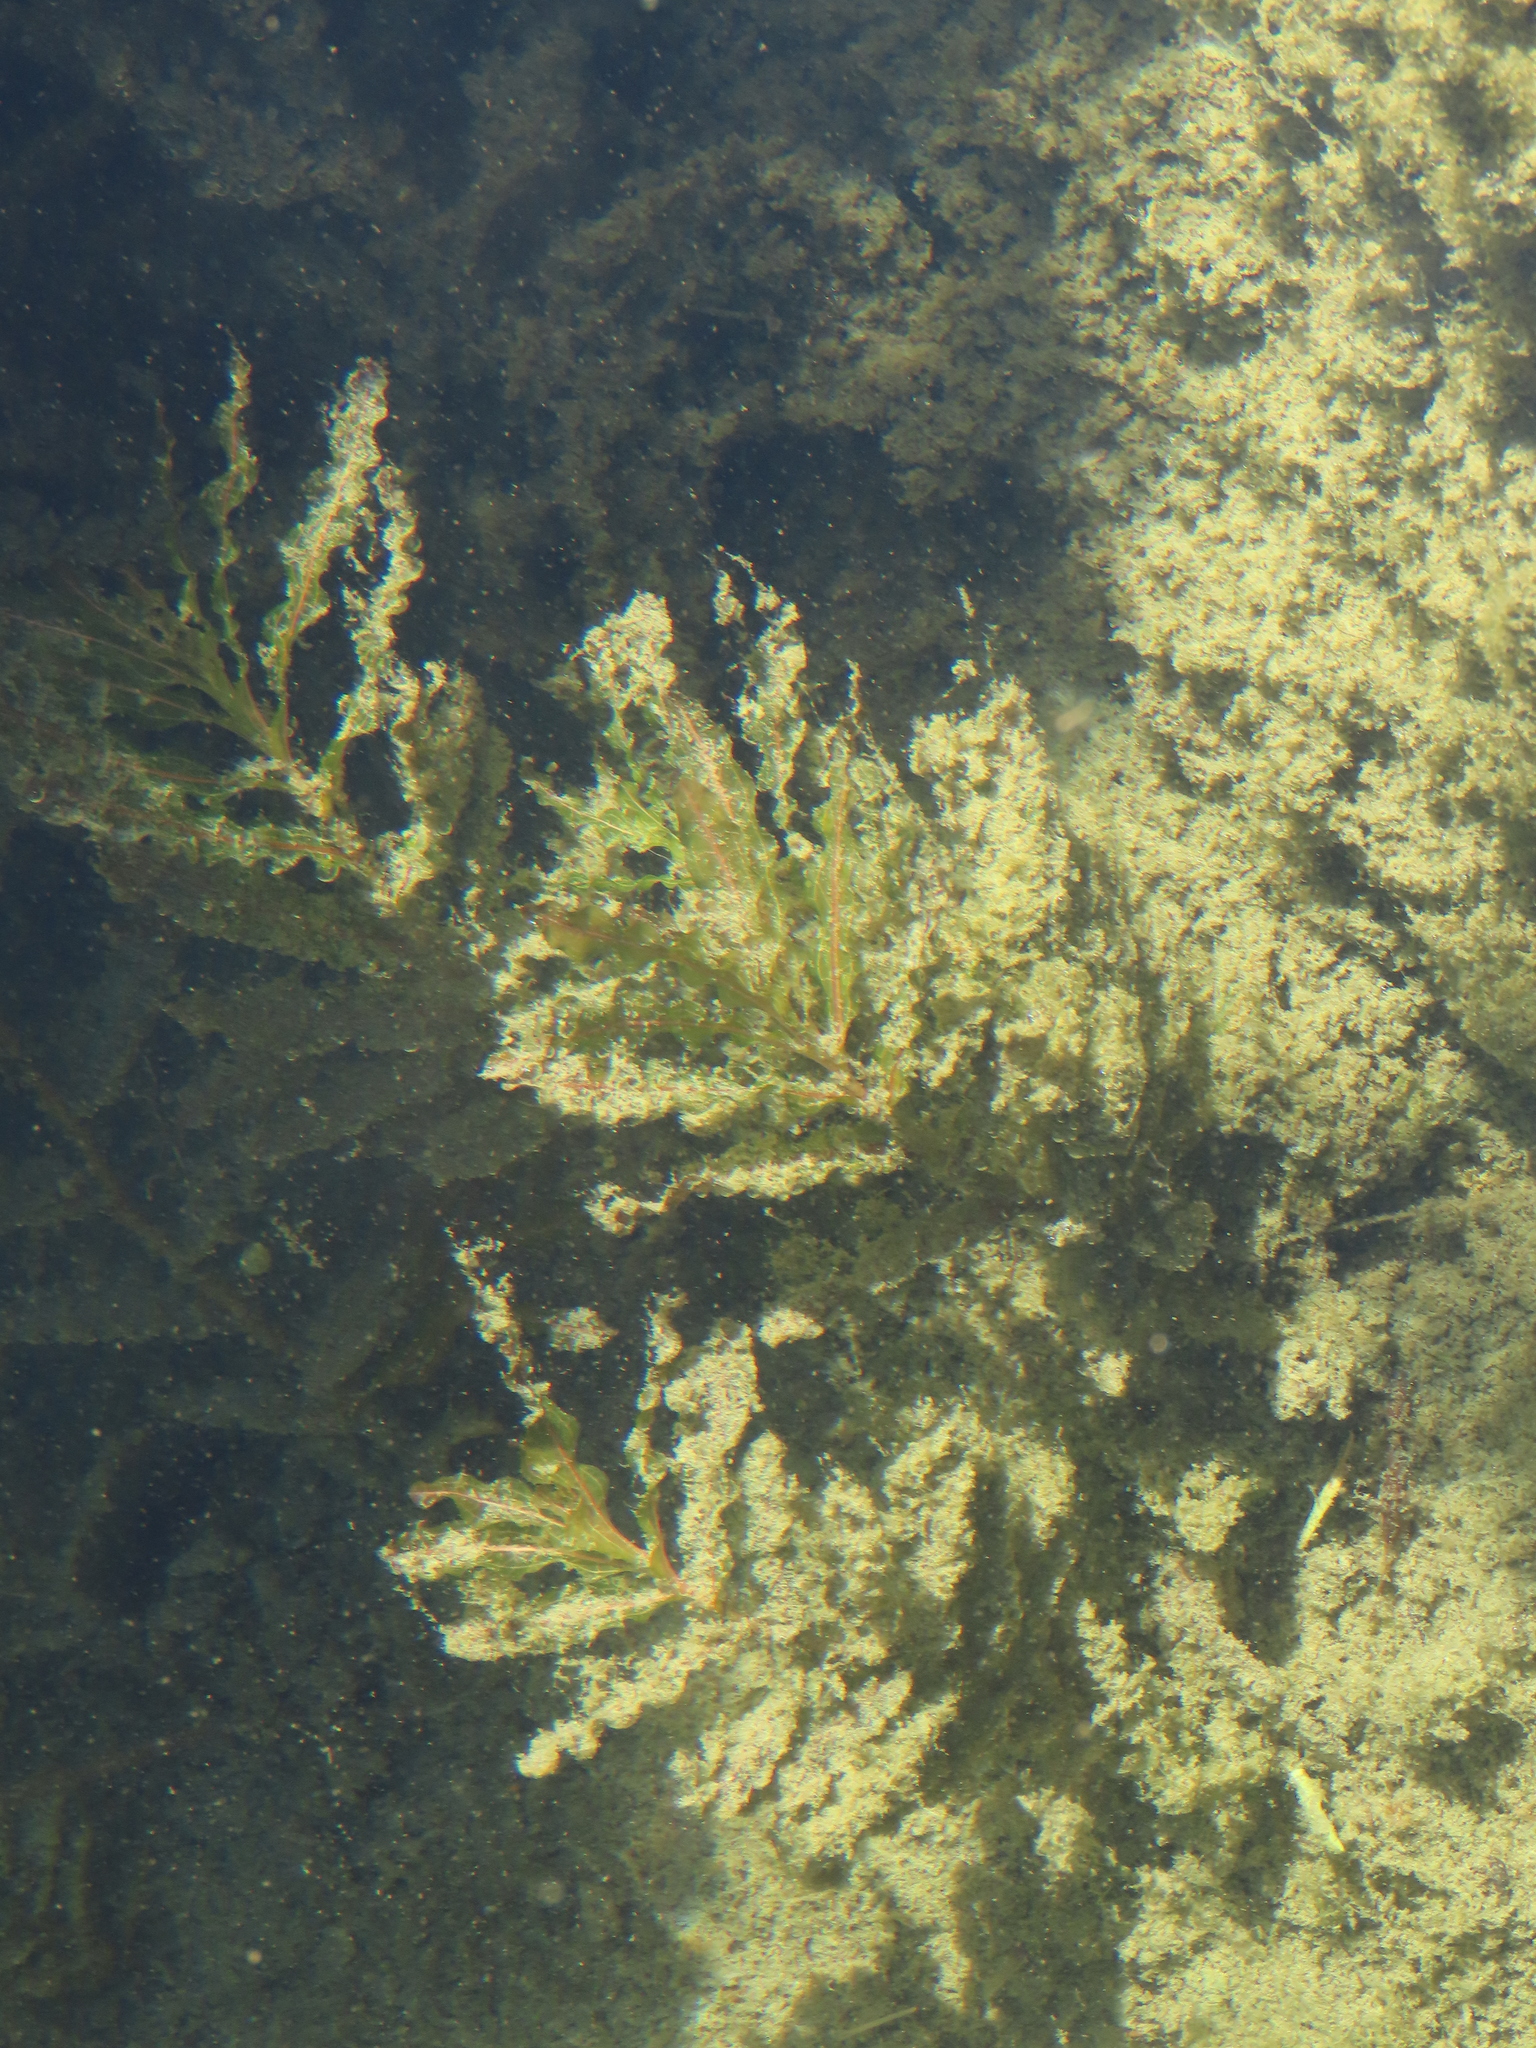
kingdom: Plantae
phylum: Tracheophyta
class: Liliopsida
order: Alismatales
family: Potamogetonaceae
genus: Potamogeton
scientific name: Potamogeton crispus
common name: Curled pondweed
